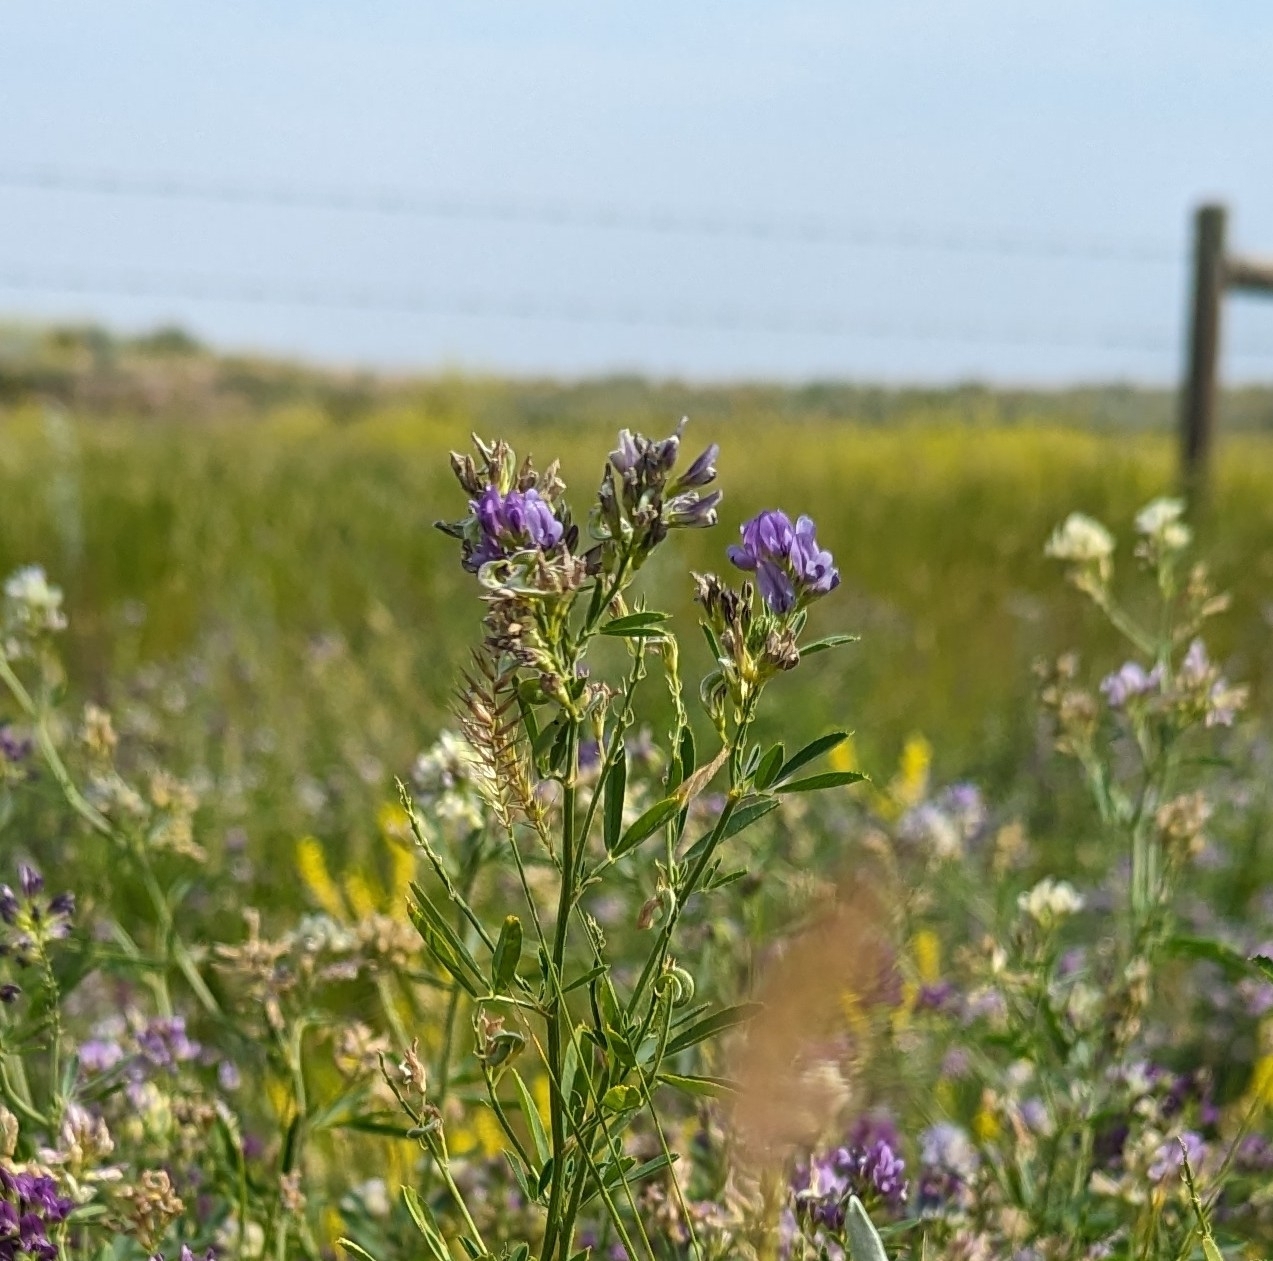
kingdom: Plantae
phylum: Tracheophyta
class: Magnoliopsida
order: Fabales
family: Fabaceae
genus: Medicago
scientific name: Medicago sativa
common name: Alfalfa
